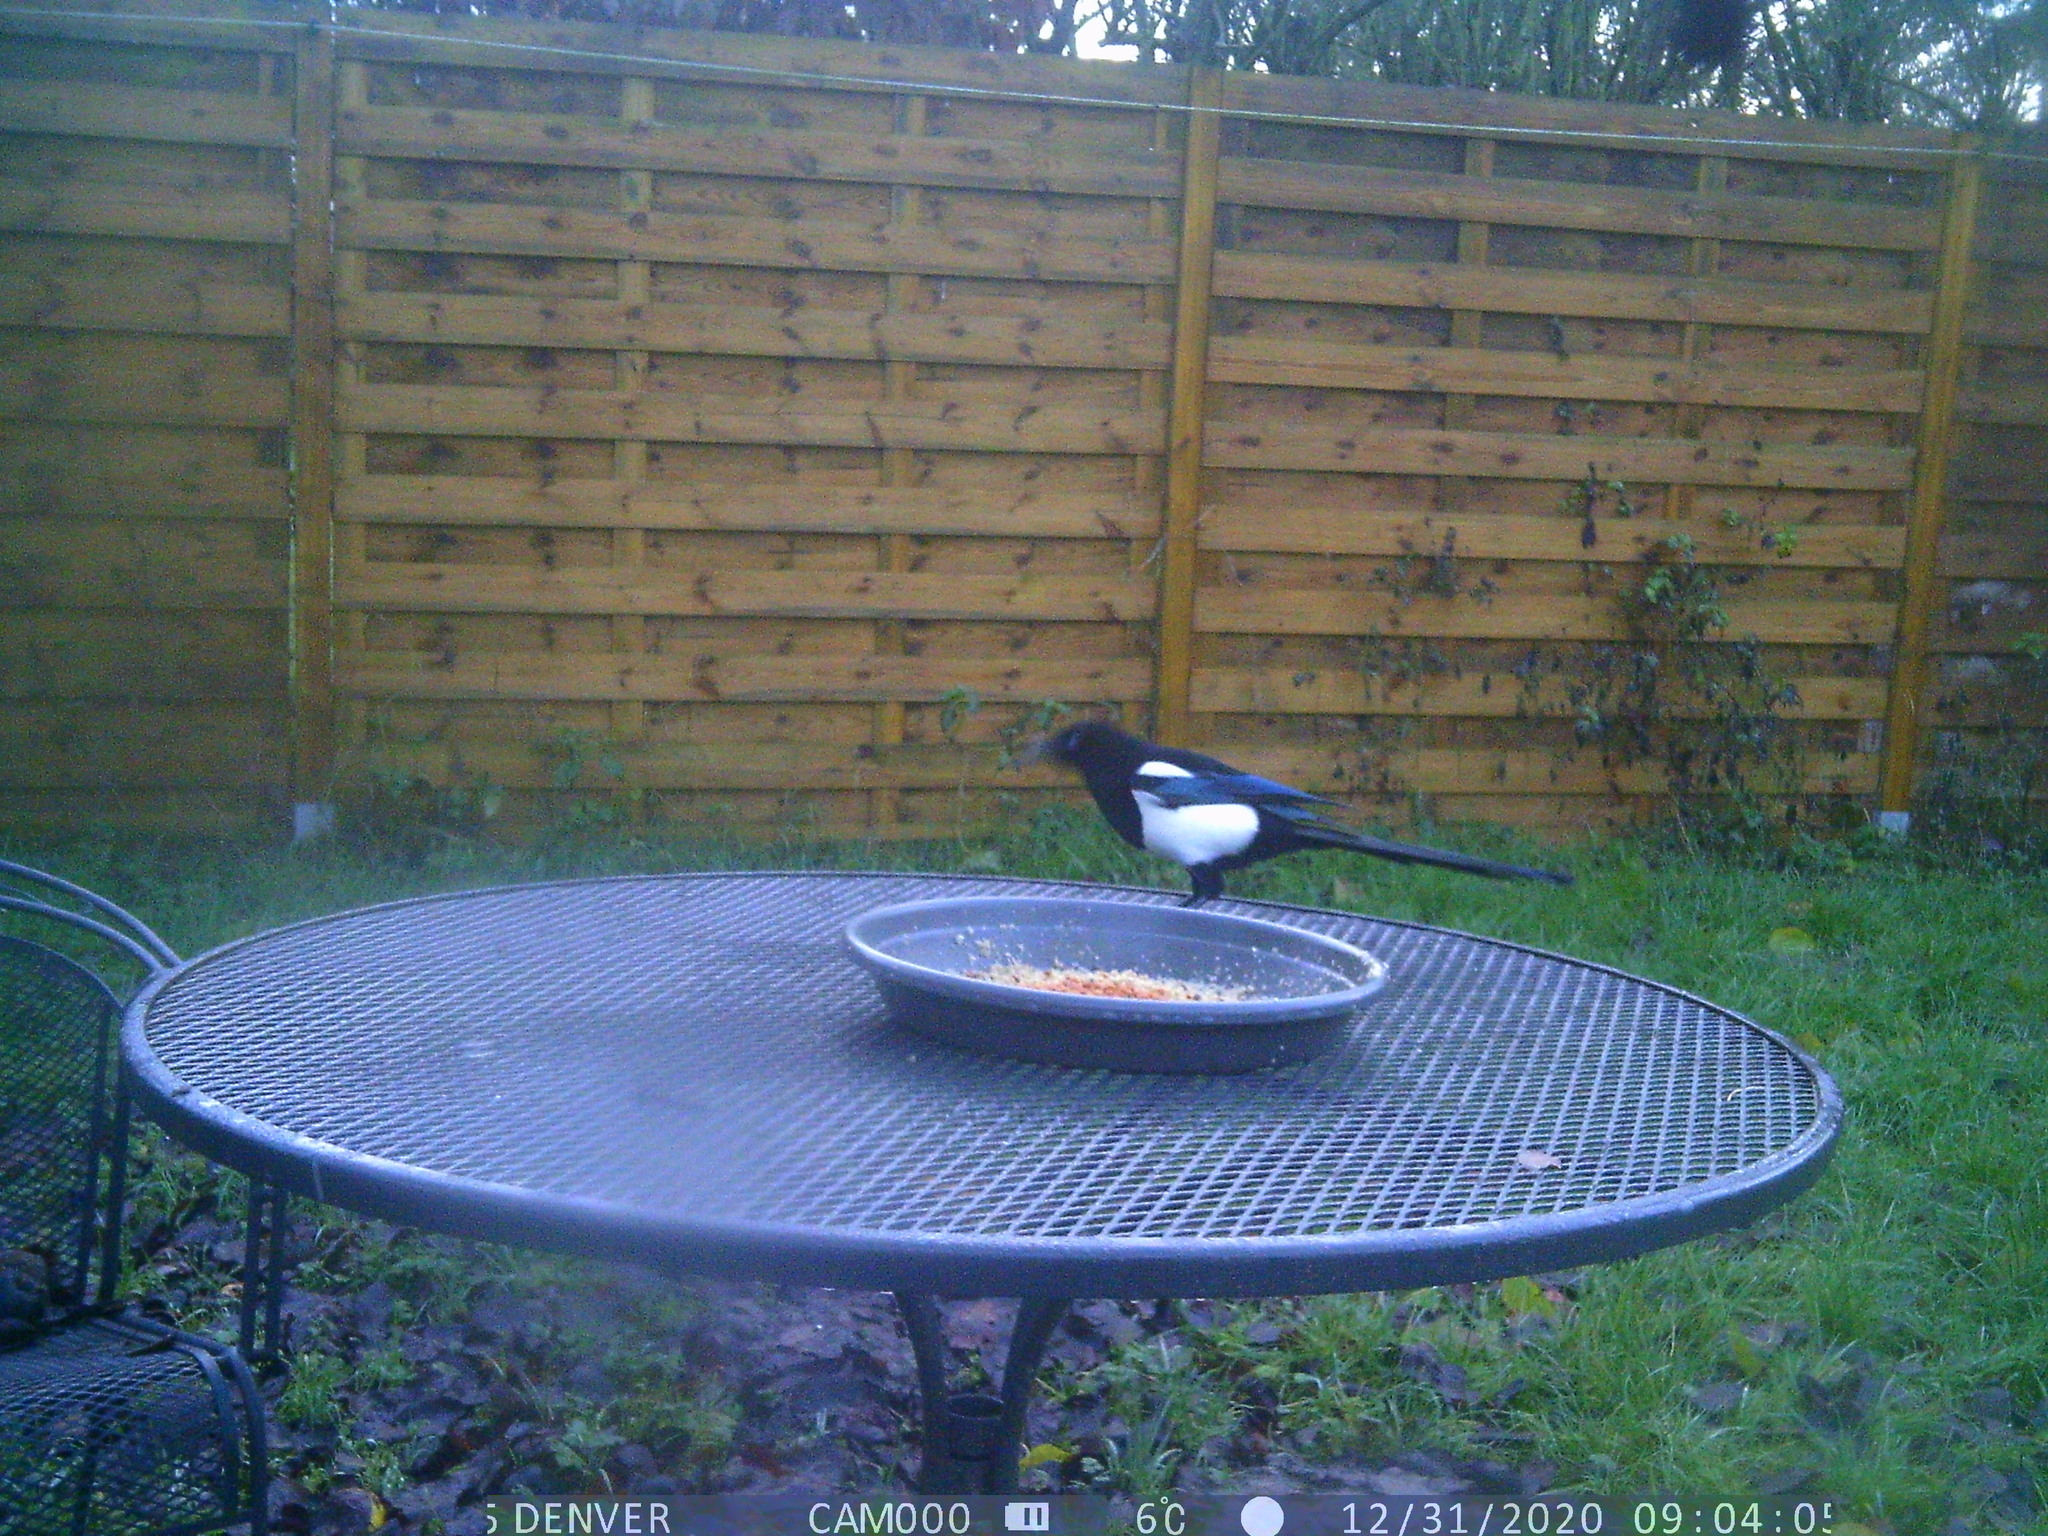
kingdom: Animalia
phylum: Chordata
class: Aves
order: Passeriformes
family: Corvidae
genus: Pica
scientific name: Pica pica
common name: Eurasian magpie
